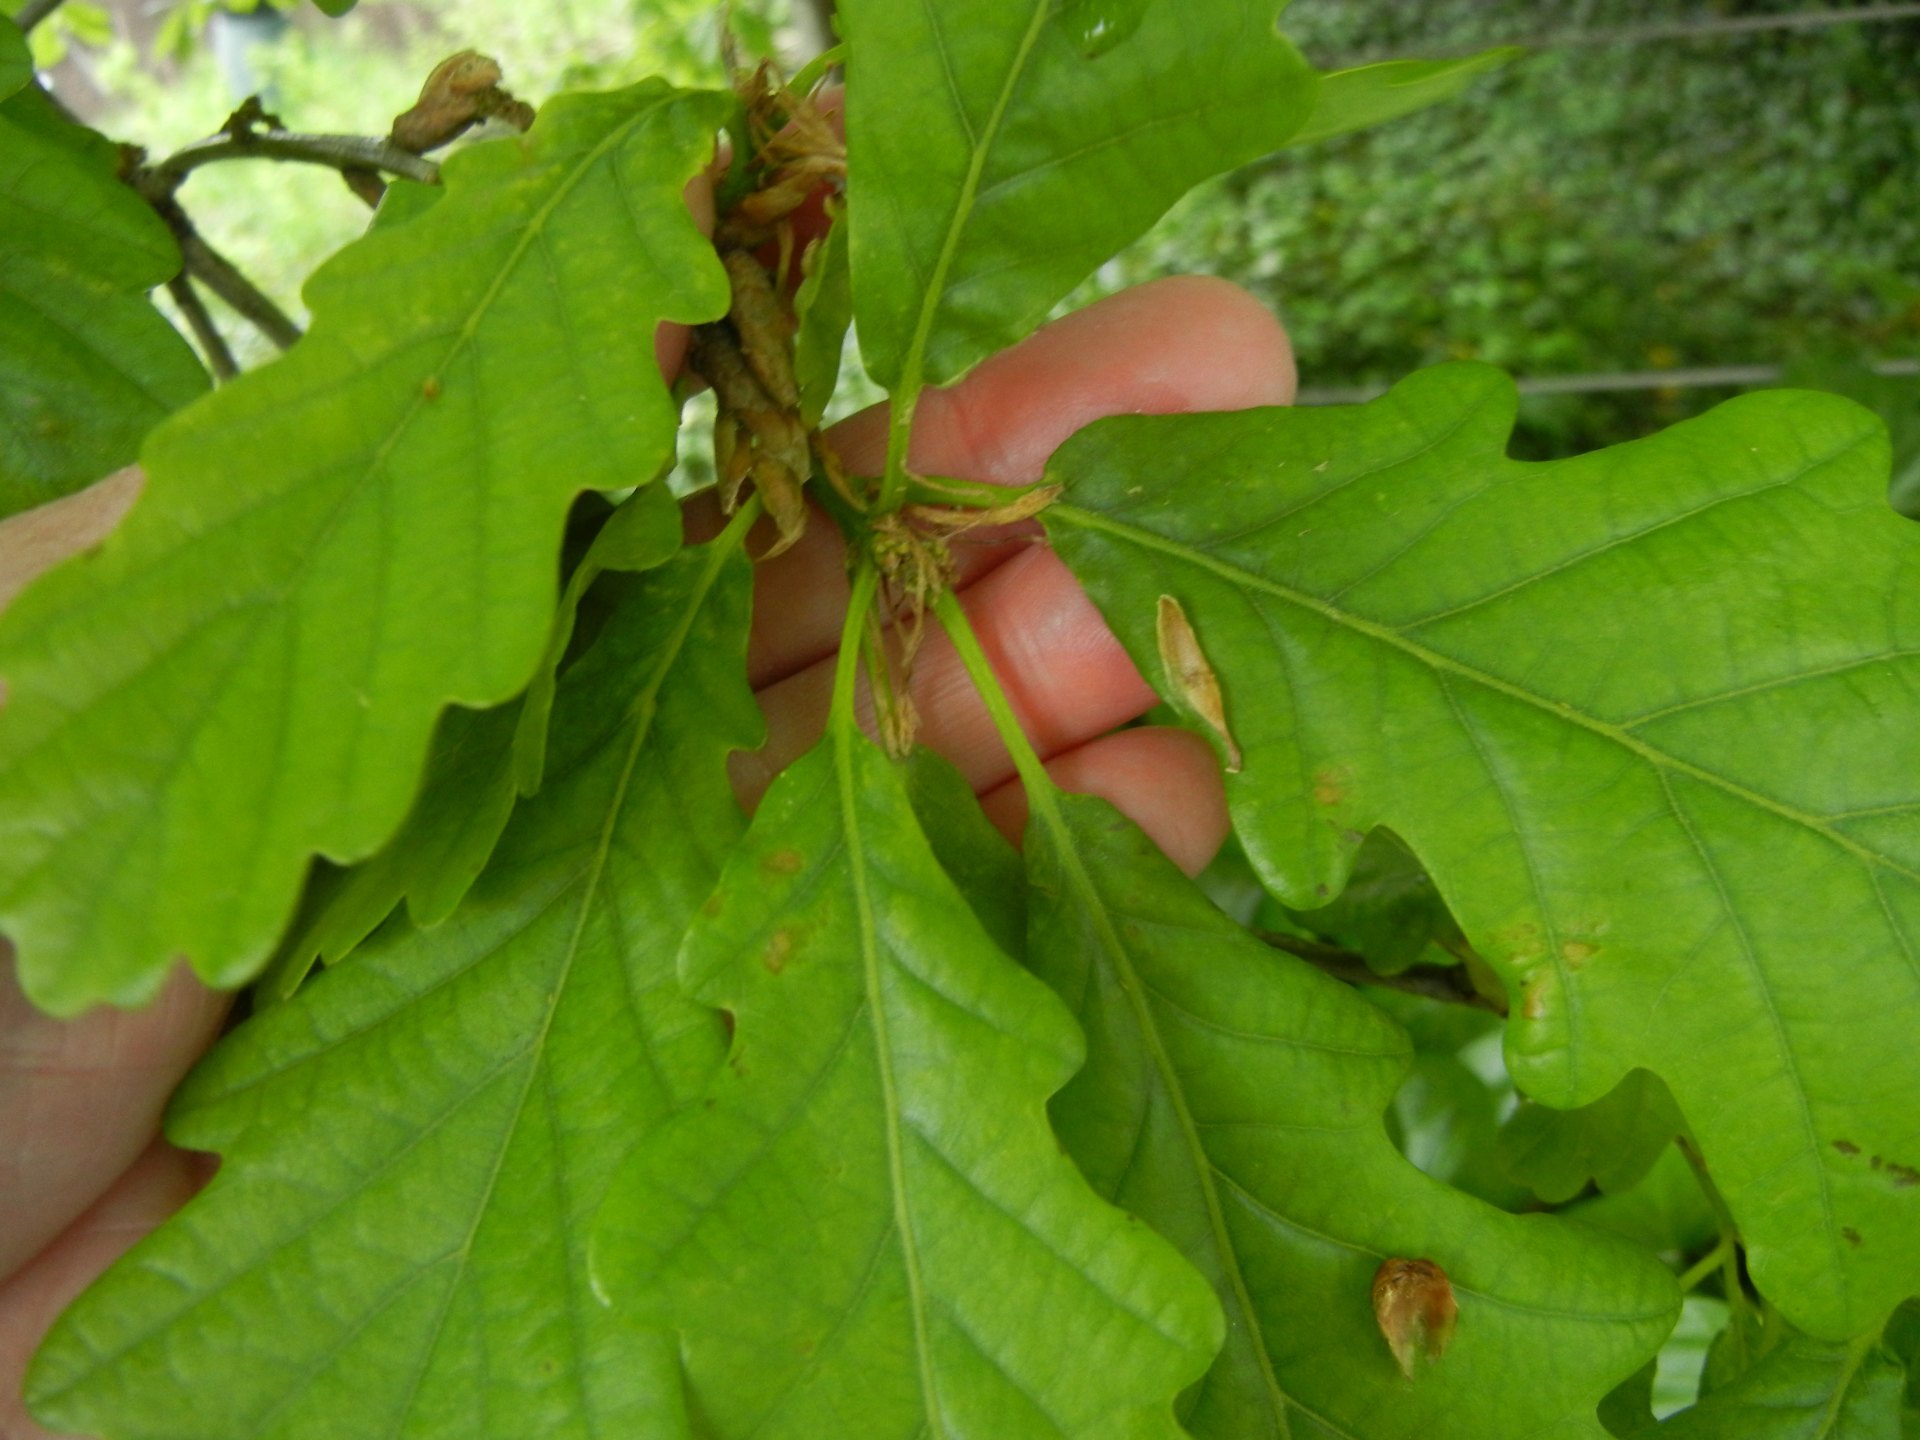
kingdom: Plantae
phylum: Tracheophyta
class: Magnoliopsida
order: Fagales
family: Fagaceae
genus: Quercus
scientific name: Quercus petraea
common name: Sessile oak
